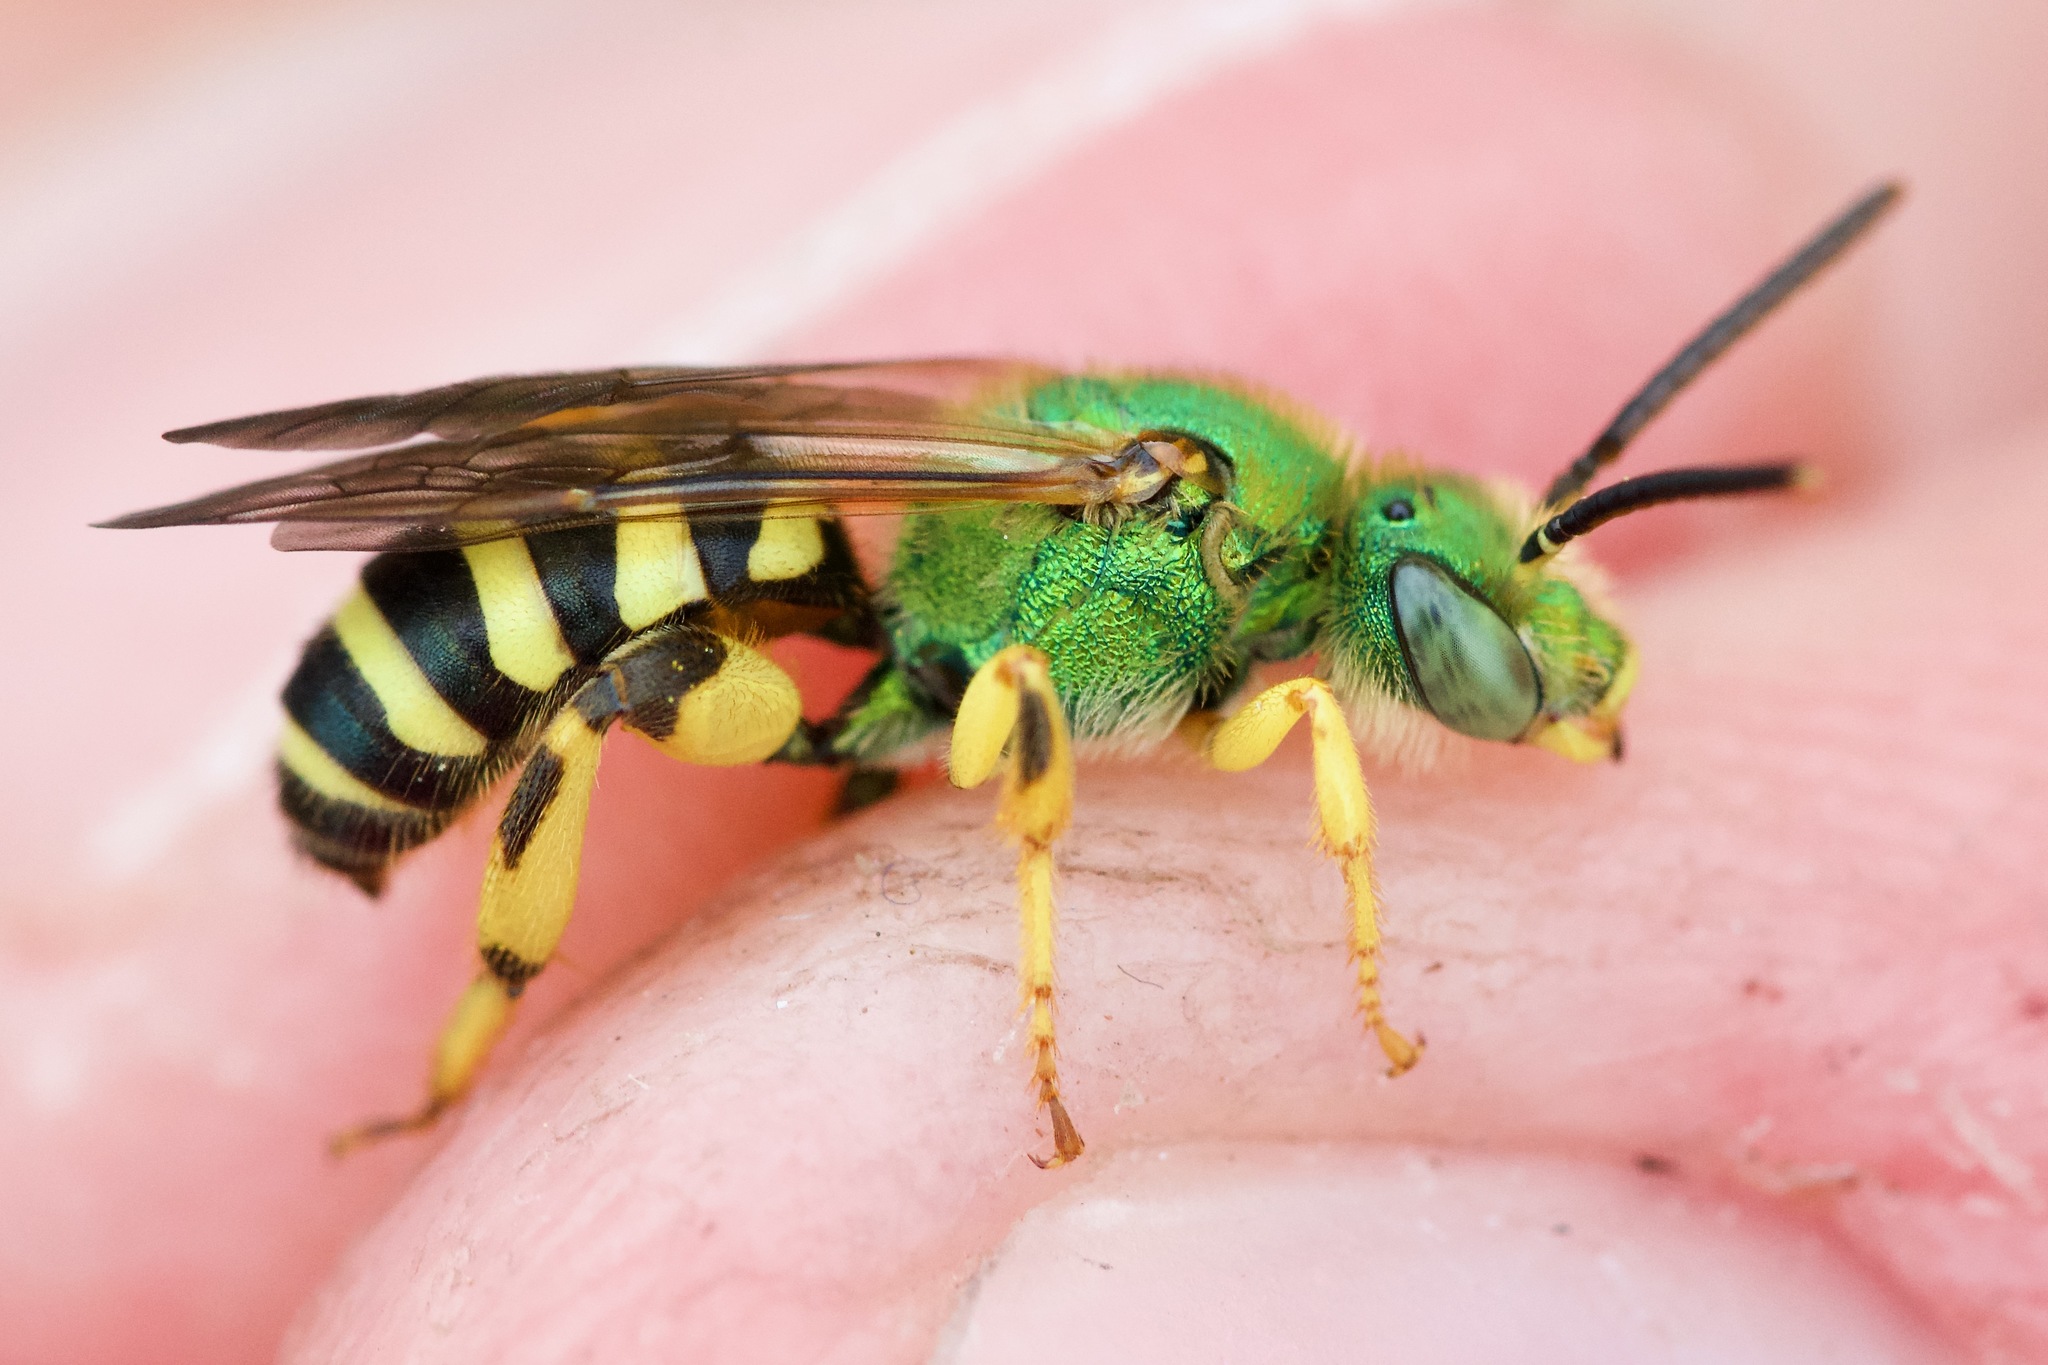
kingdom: Animalia
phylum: Arthropoda
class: Insecta
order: Hymenoptera
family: Halictidae
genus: Agapostemon
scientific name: Agapostemon splendens
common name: Brown-winged striped sweat bee
